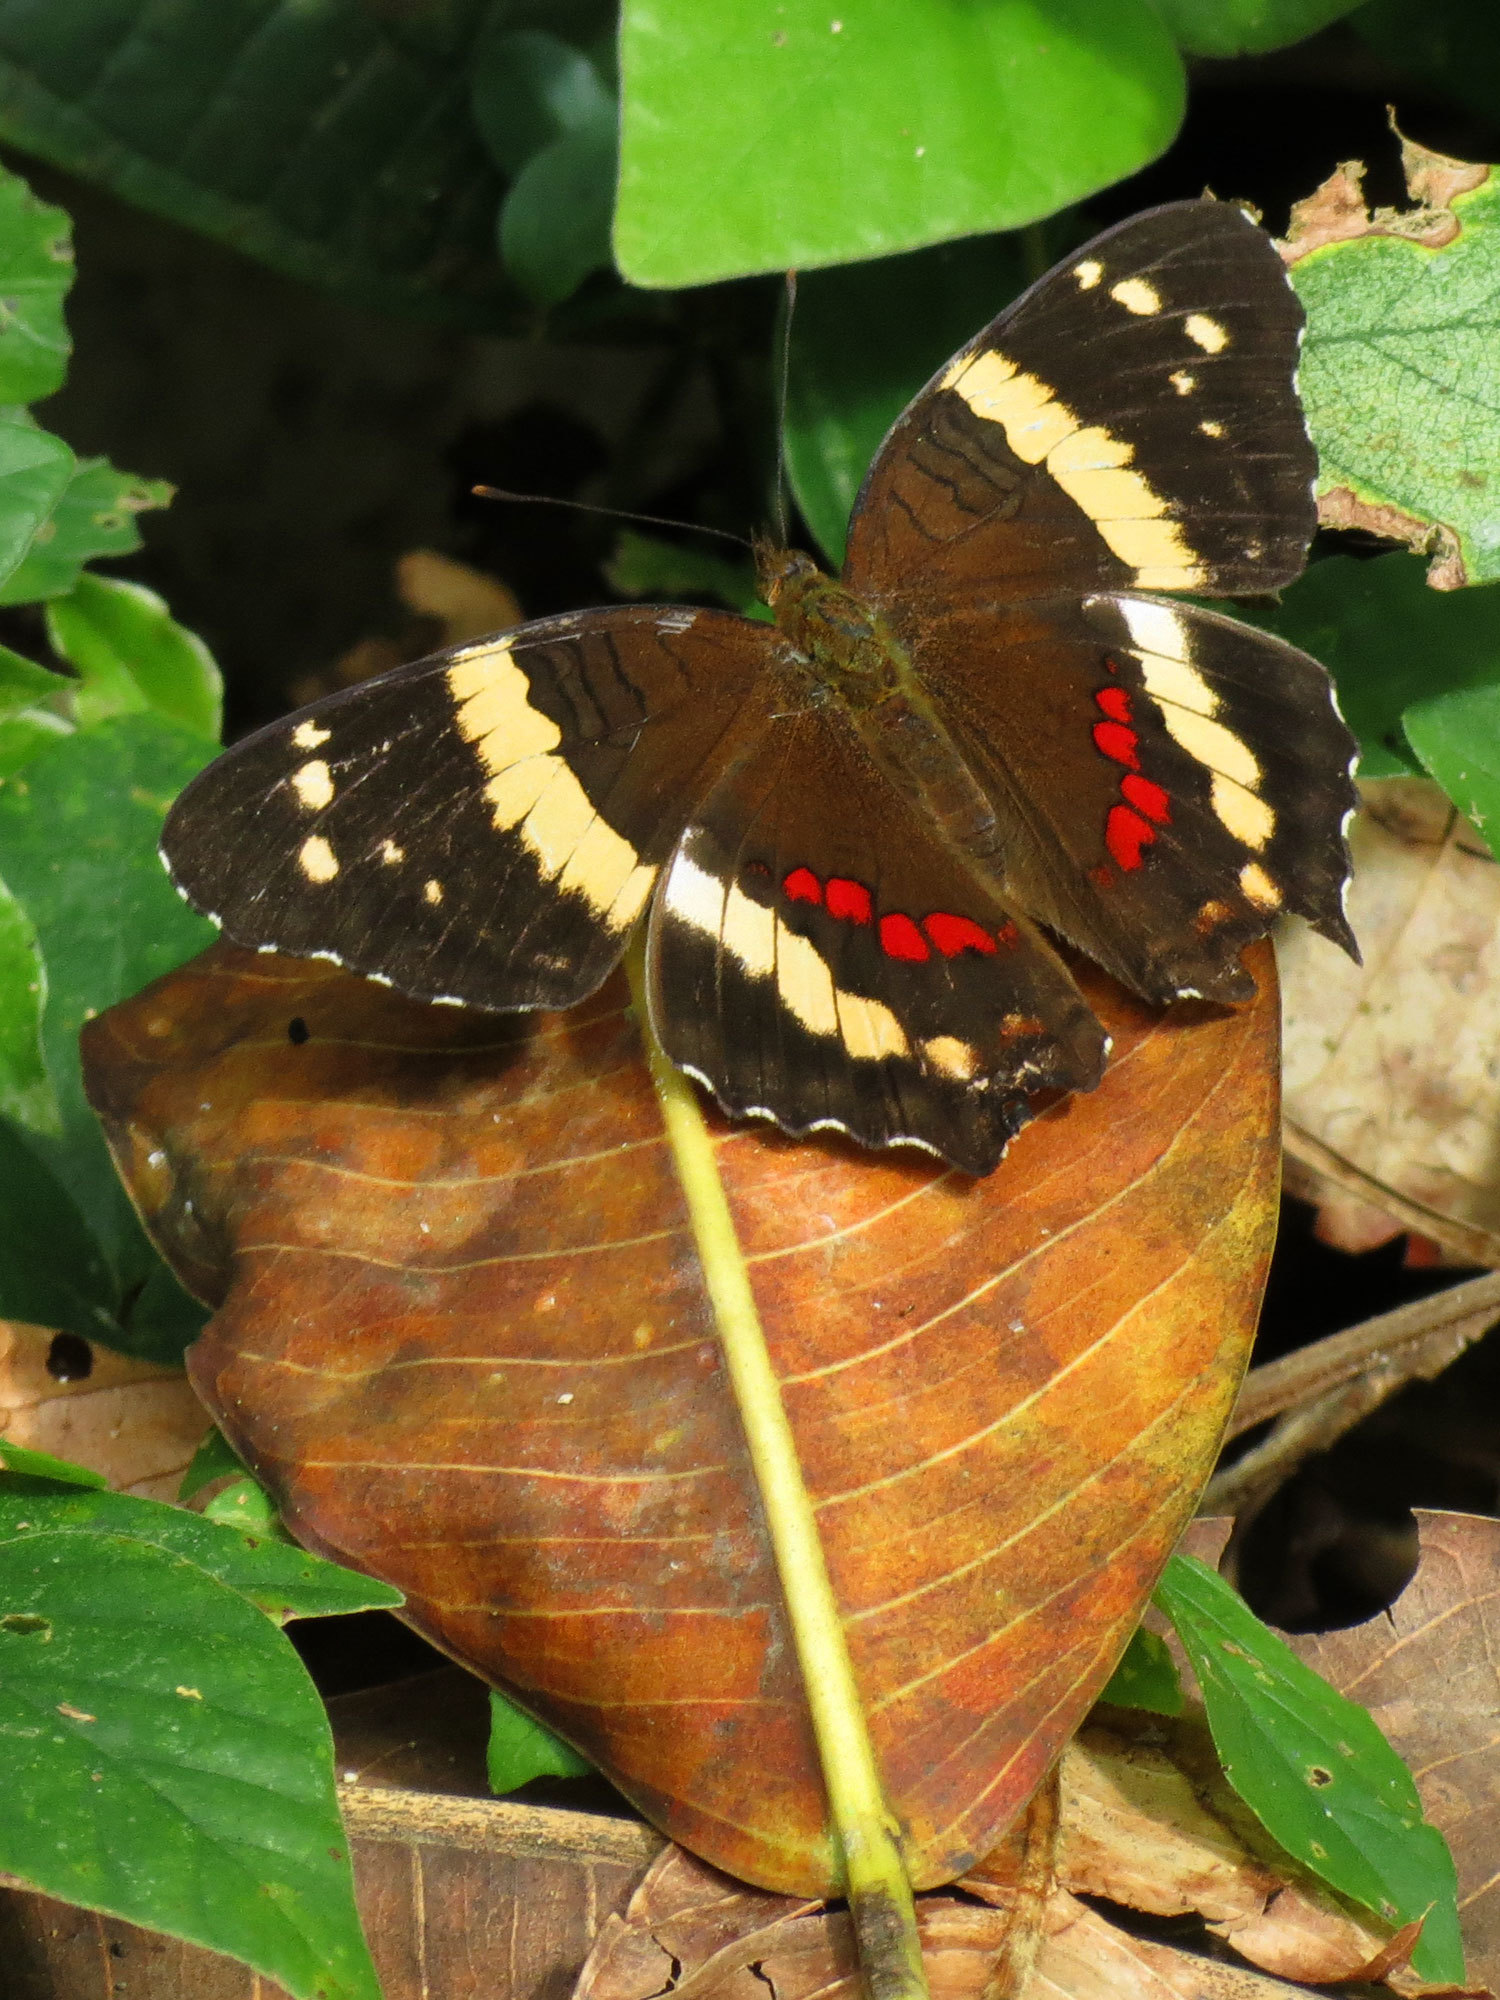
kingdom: Animalia
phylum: Arthropoda
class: Insecta
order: Lepidoptera
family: Nymphalidae
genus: Anartia
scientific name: Anartia fatima
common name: Banded peacock
